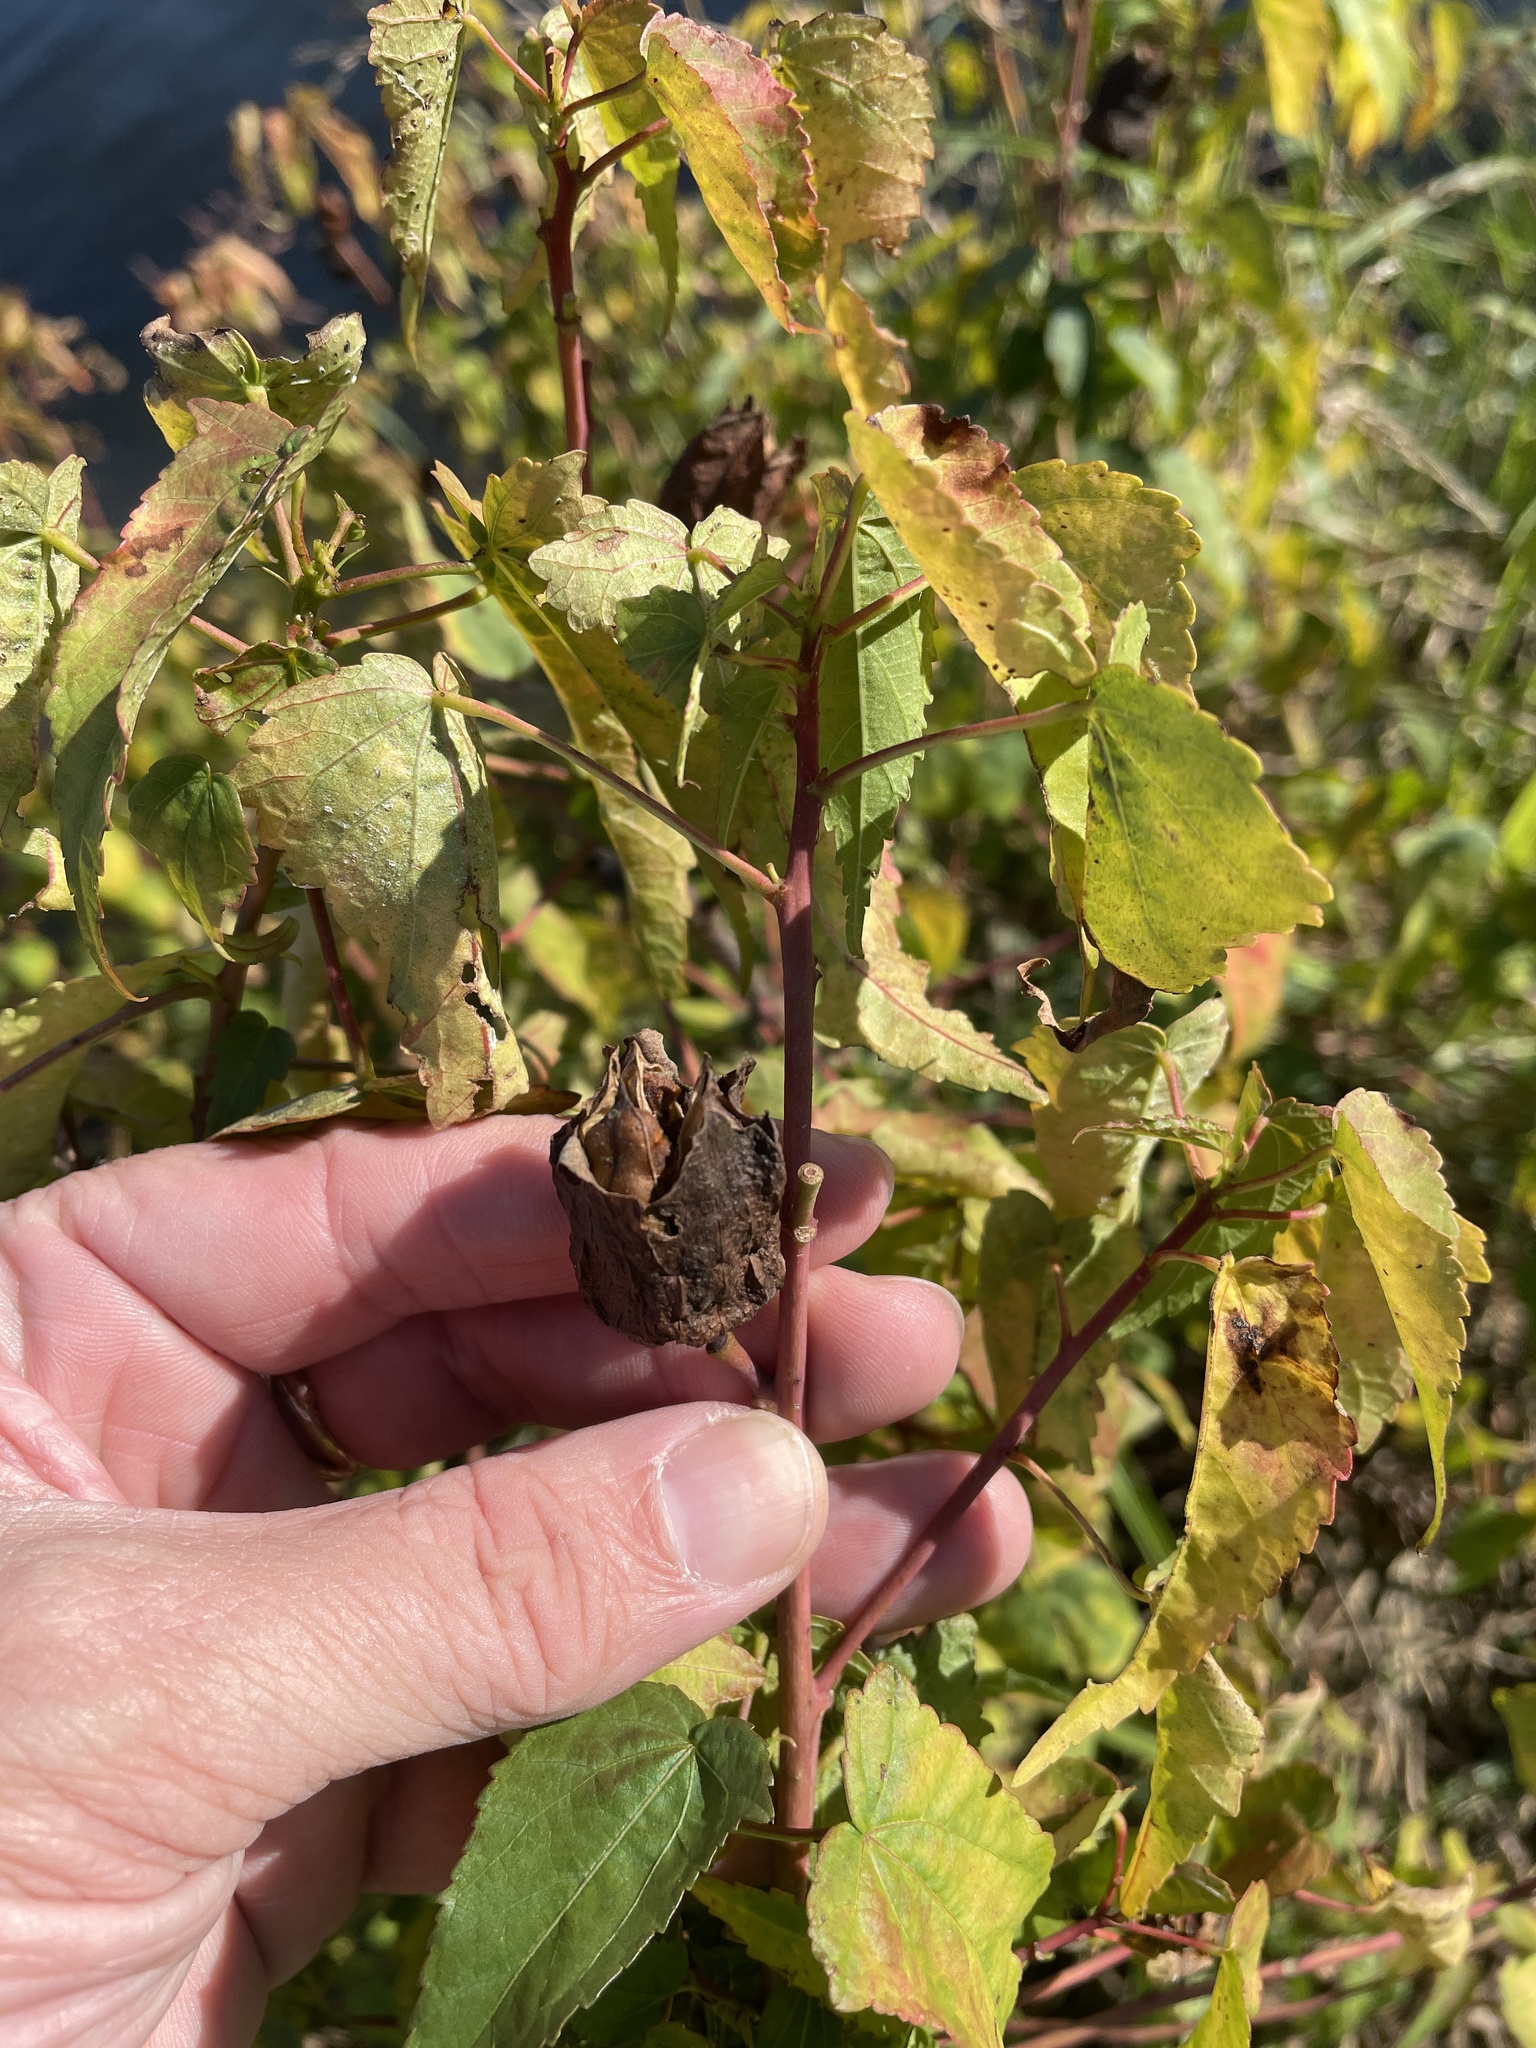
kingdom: Plantae
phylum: Tracheophyta
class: Magnoliopsida
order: Malvales
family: Malvaceae
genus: Hibiscus
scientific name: Hibiscus laevis
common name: Scarlet rose-mallow
